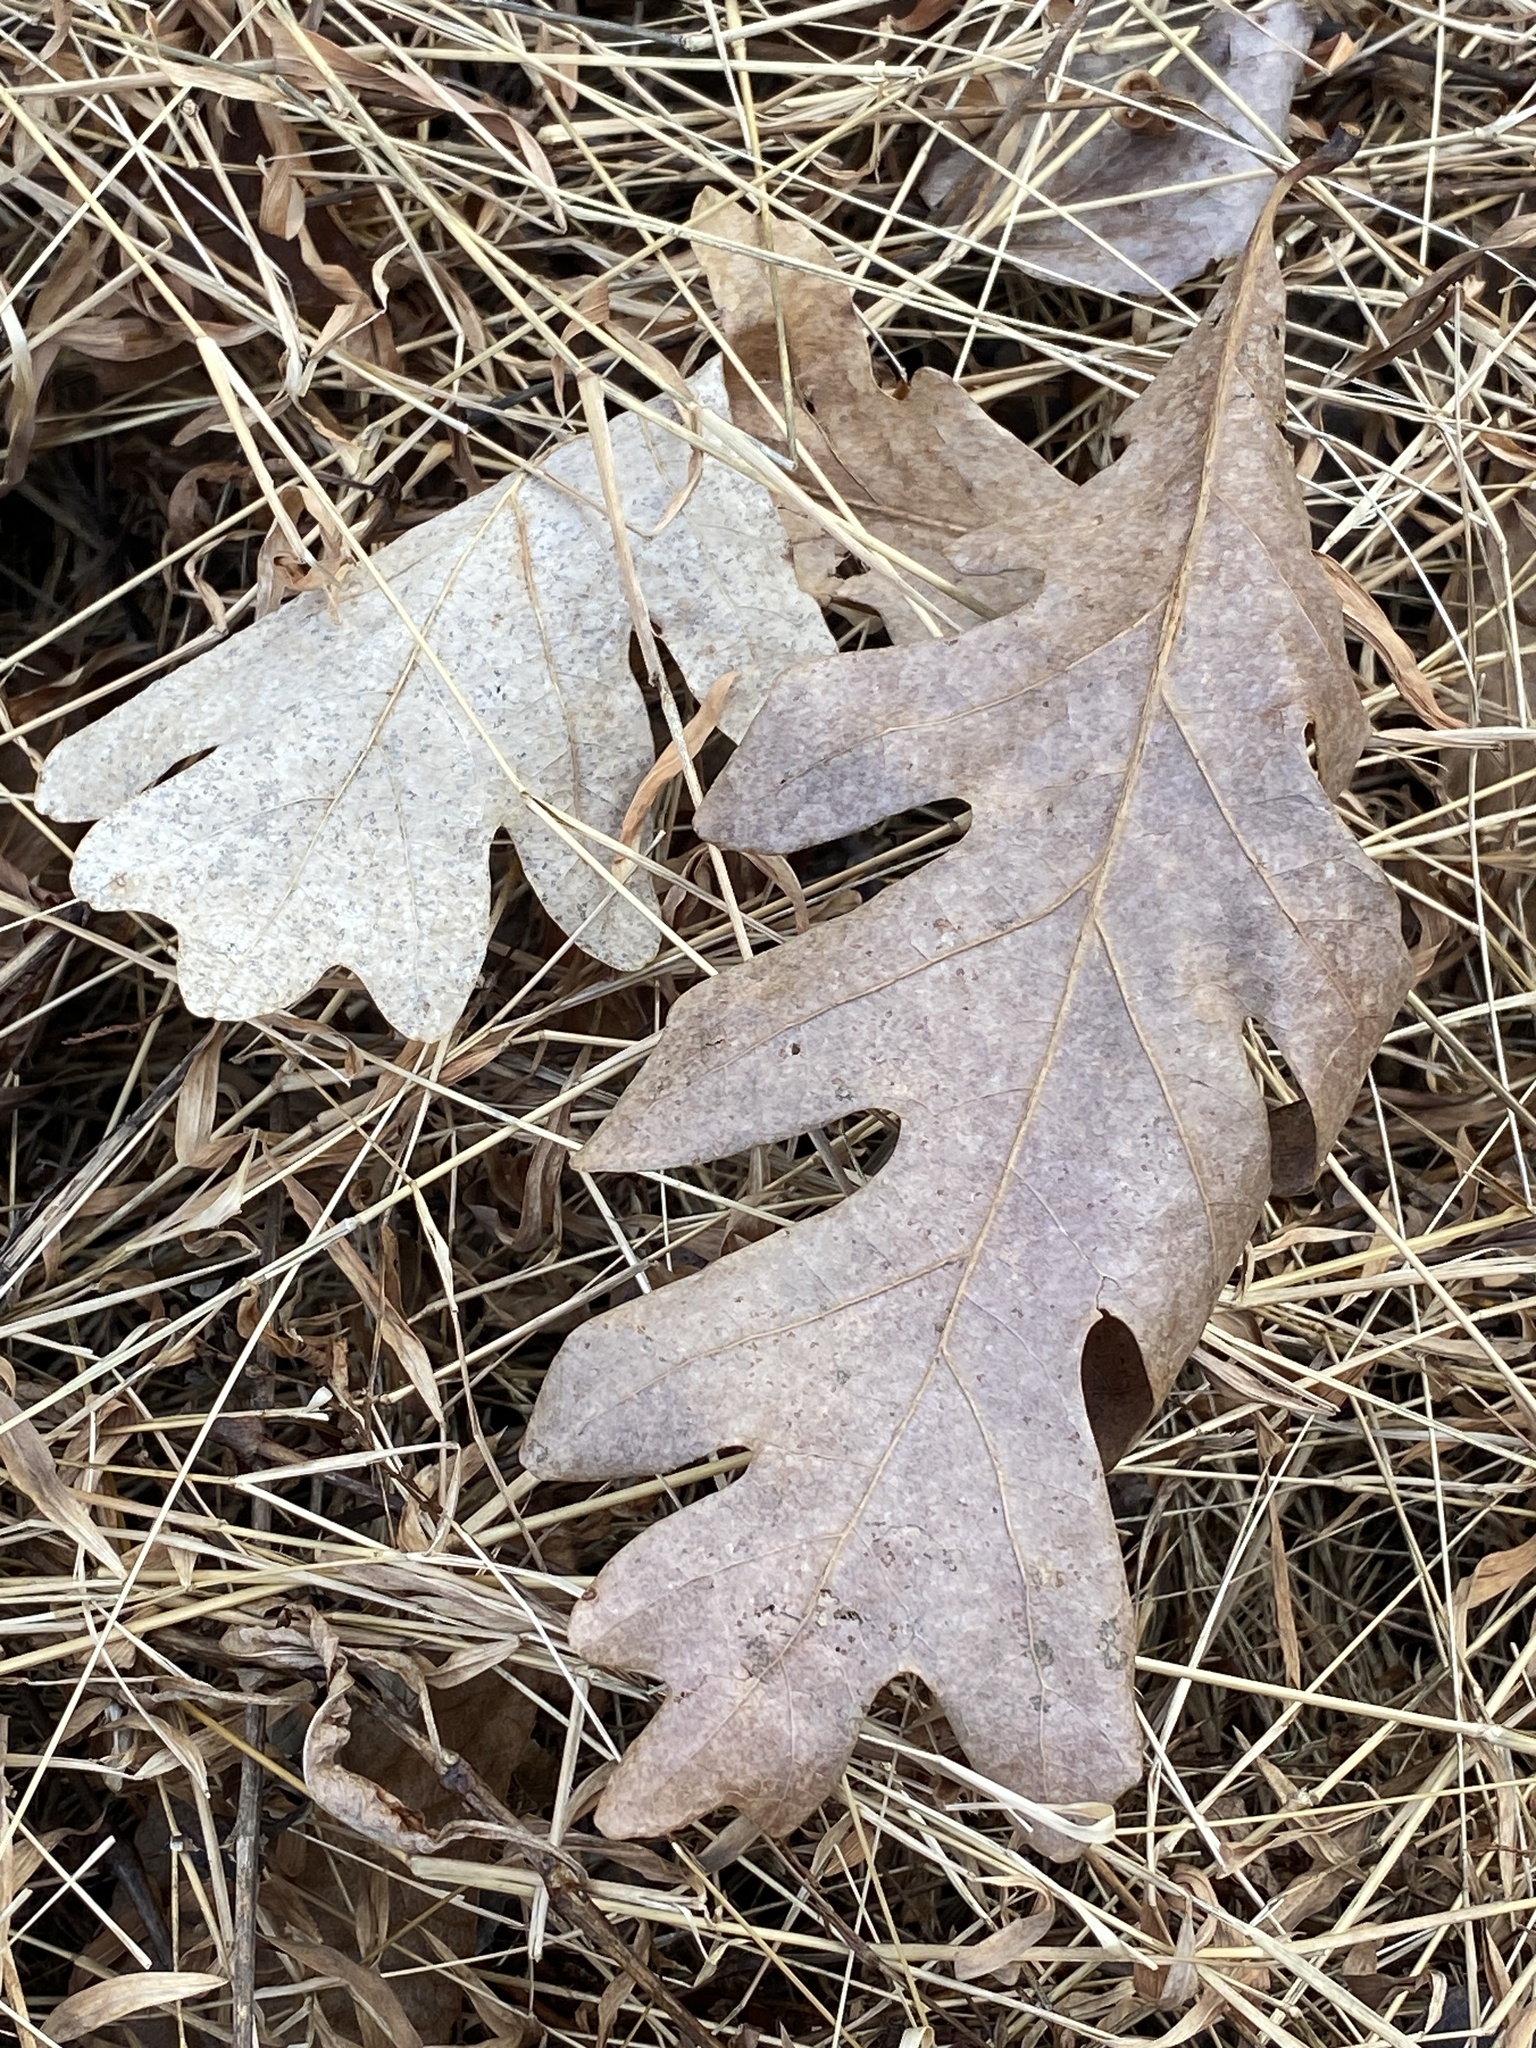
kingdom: Plantae
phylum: Tracheophyta
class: Magnoliopsida
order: Fagales
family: Fagaceae
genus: Quercus
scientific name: Quercus alba
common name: White oak
